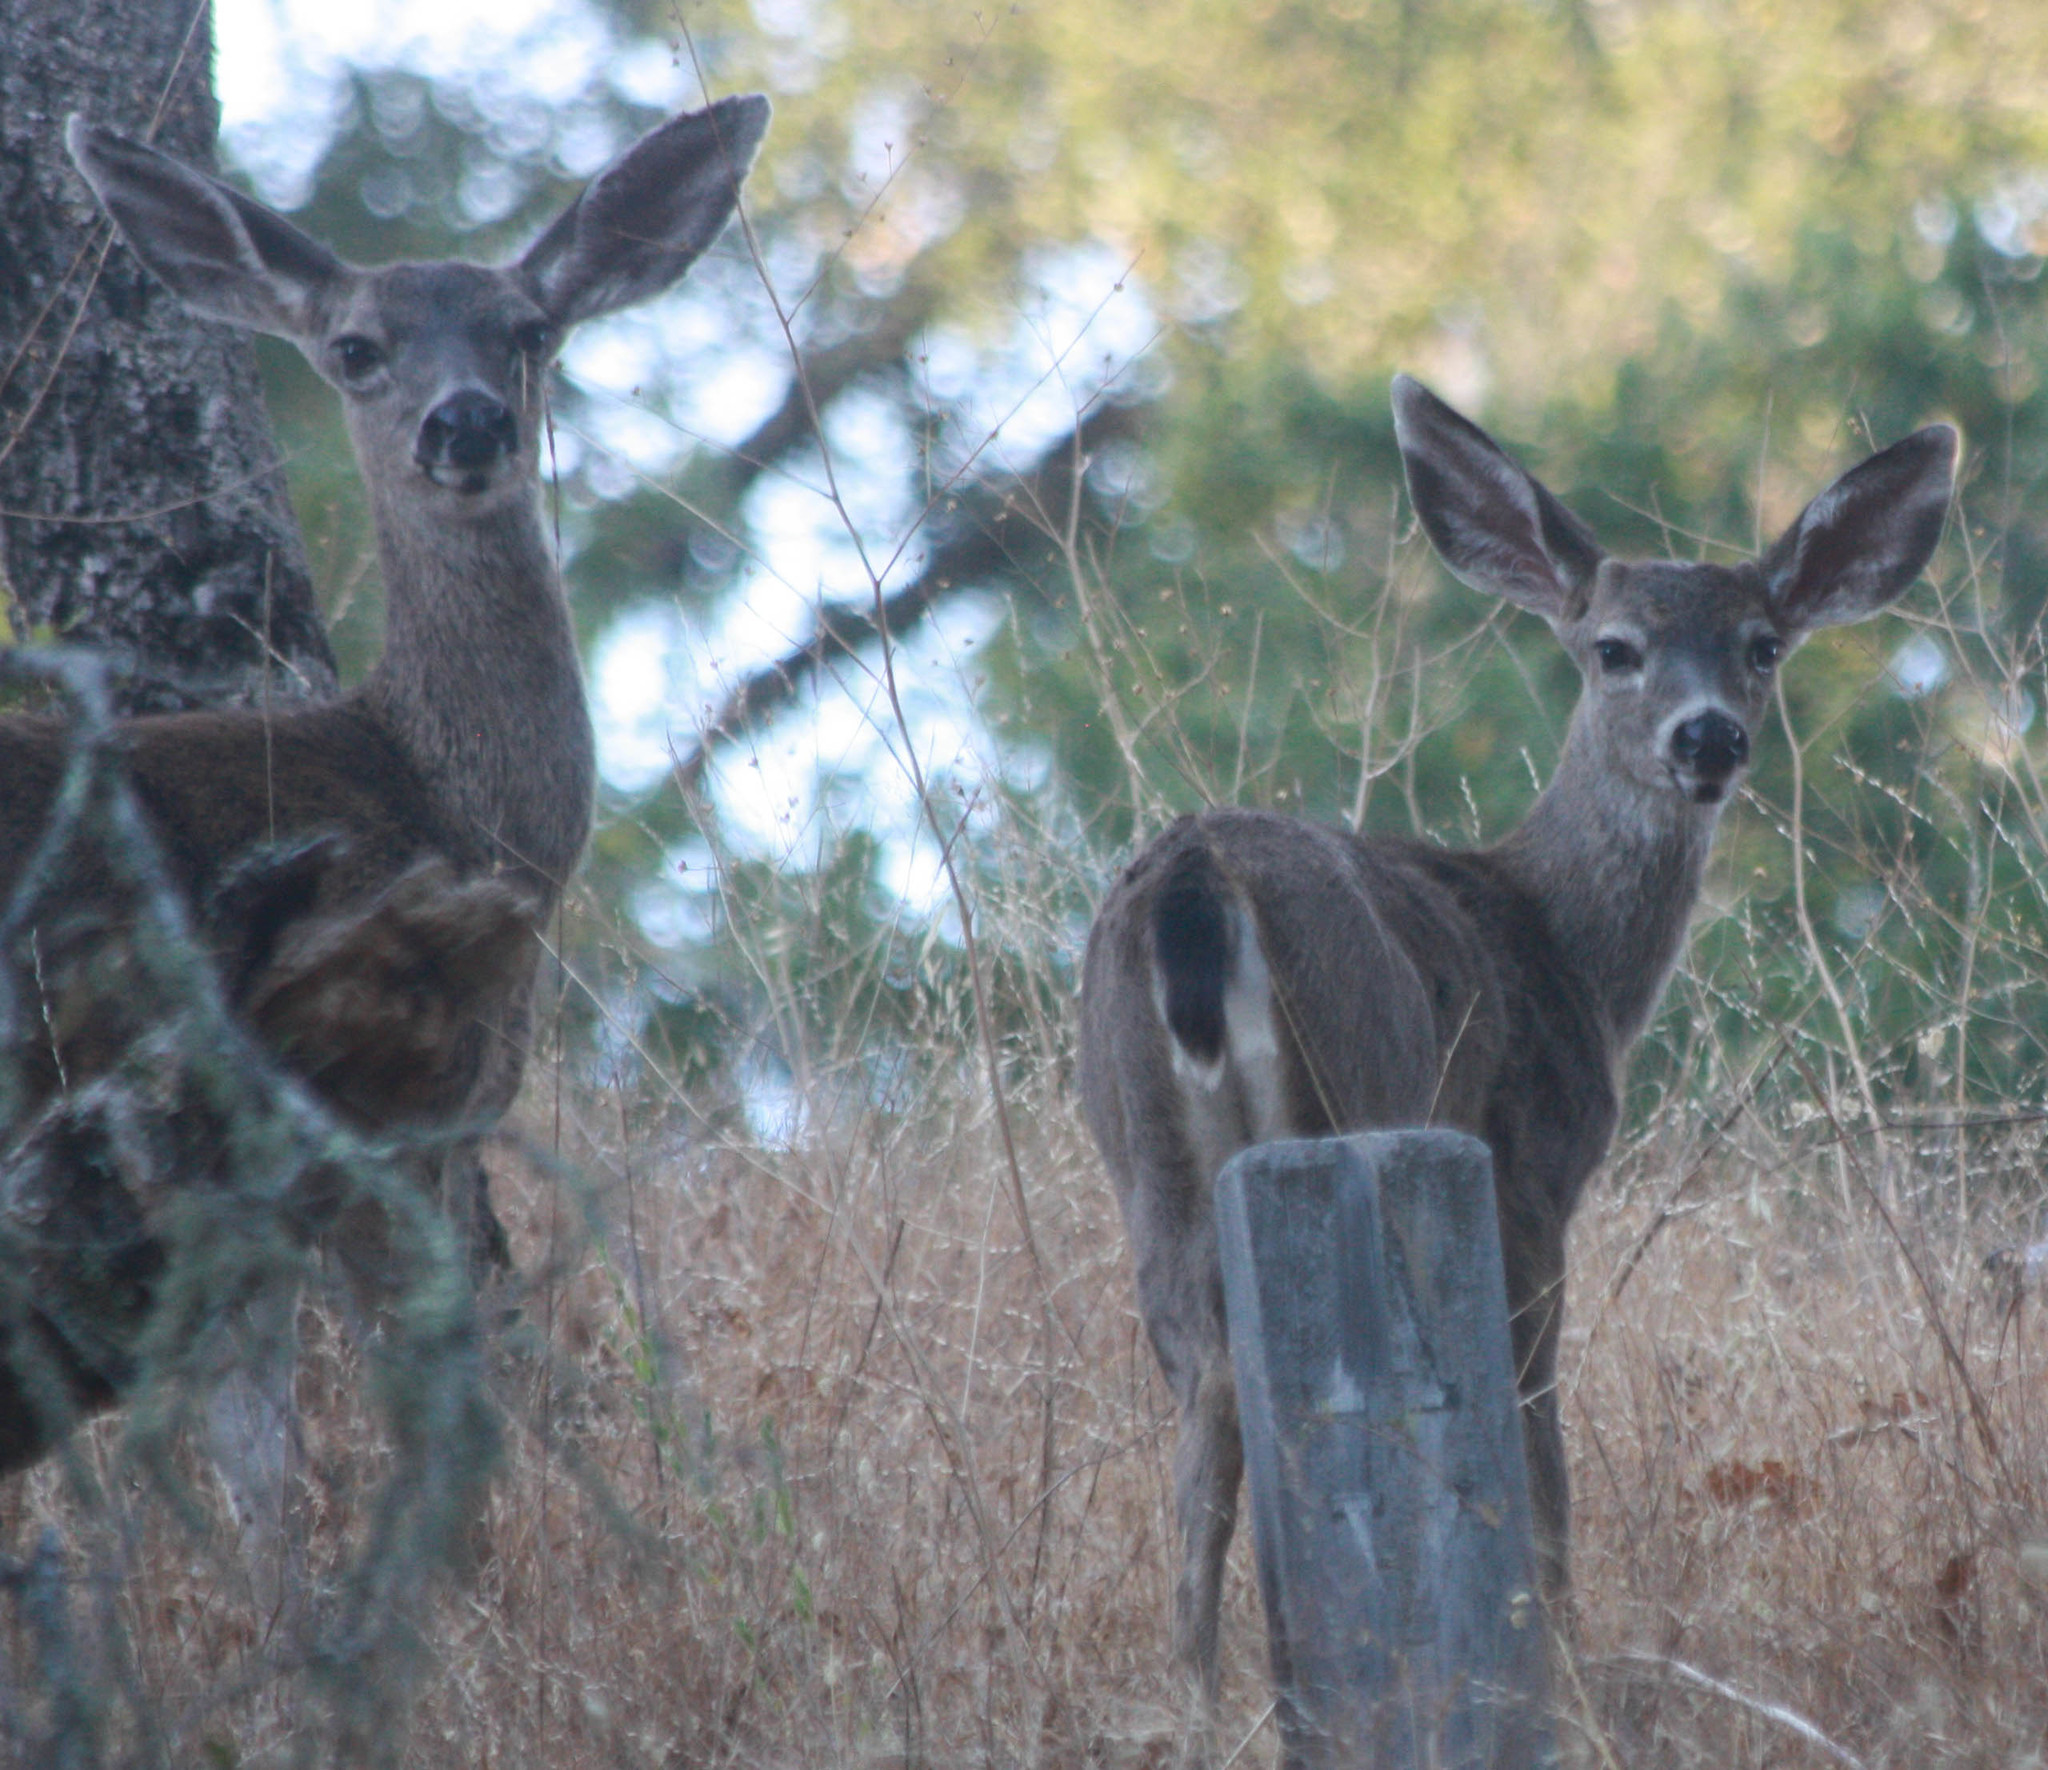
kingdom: Animalia
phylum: Chordata
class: Mammalia
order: Artiodactyla
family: Cervidae
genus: Odocoileus
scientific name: Odocoileus hemionus
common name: Mule deer
